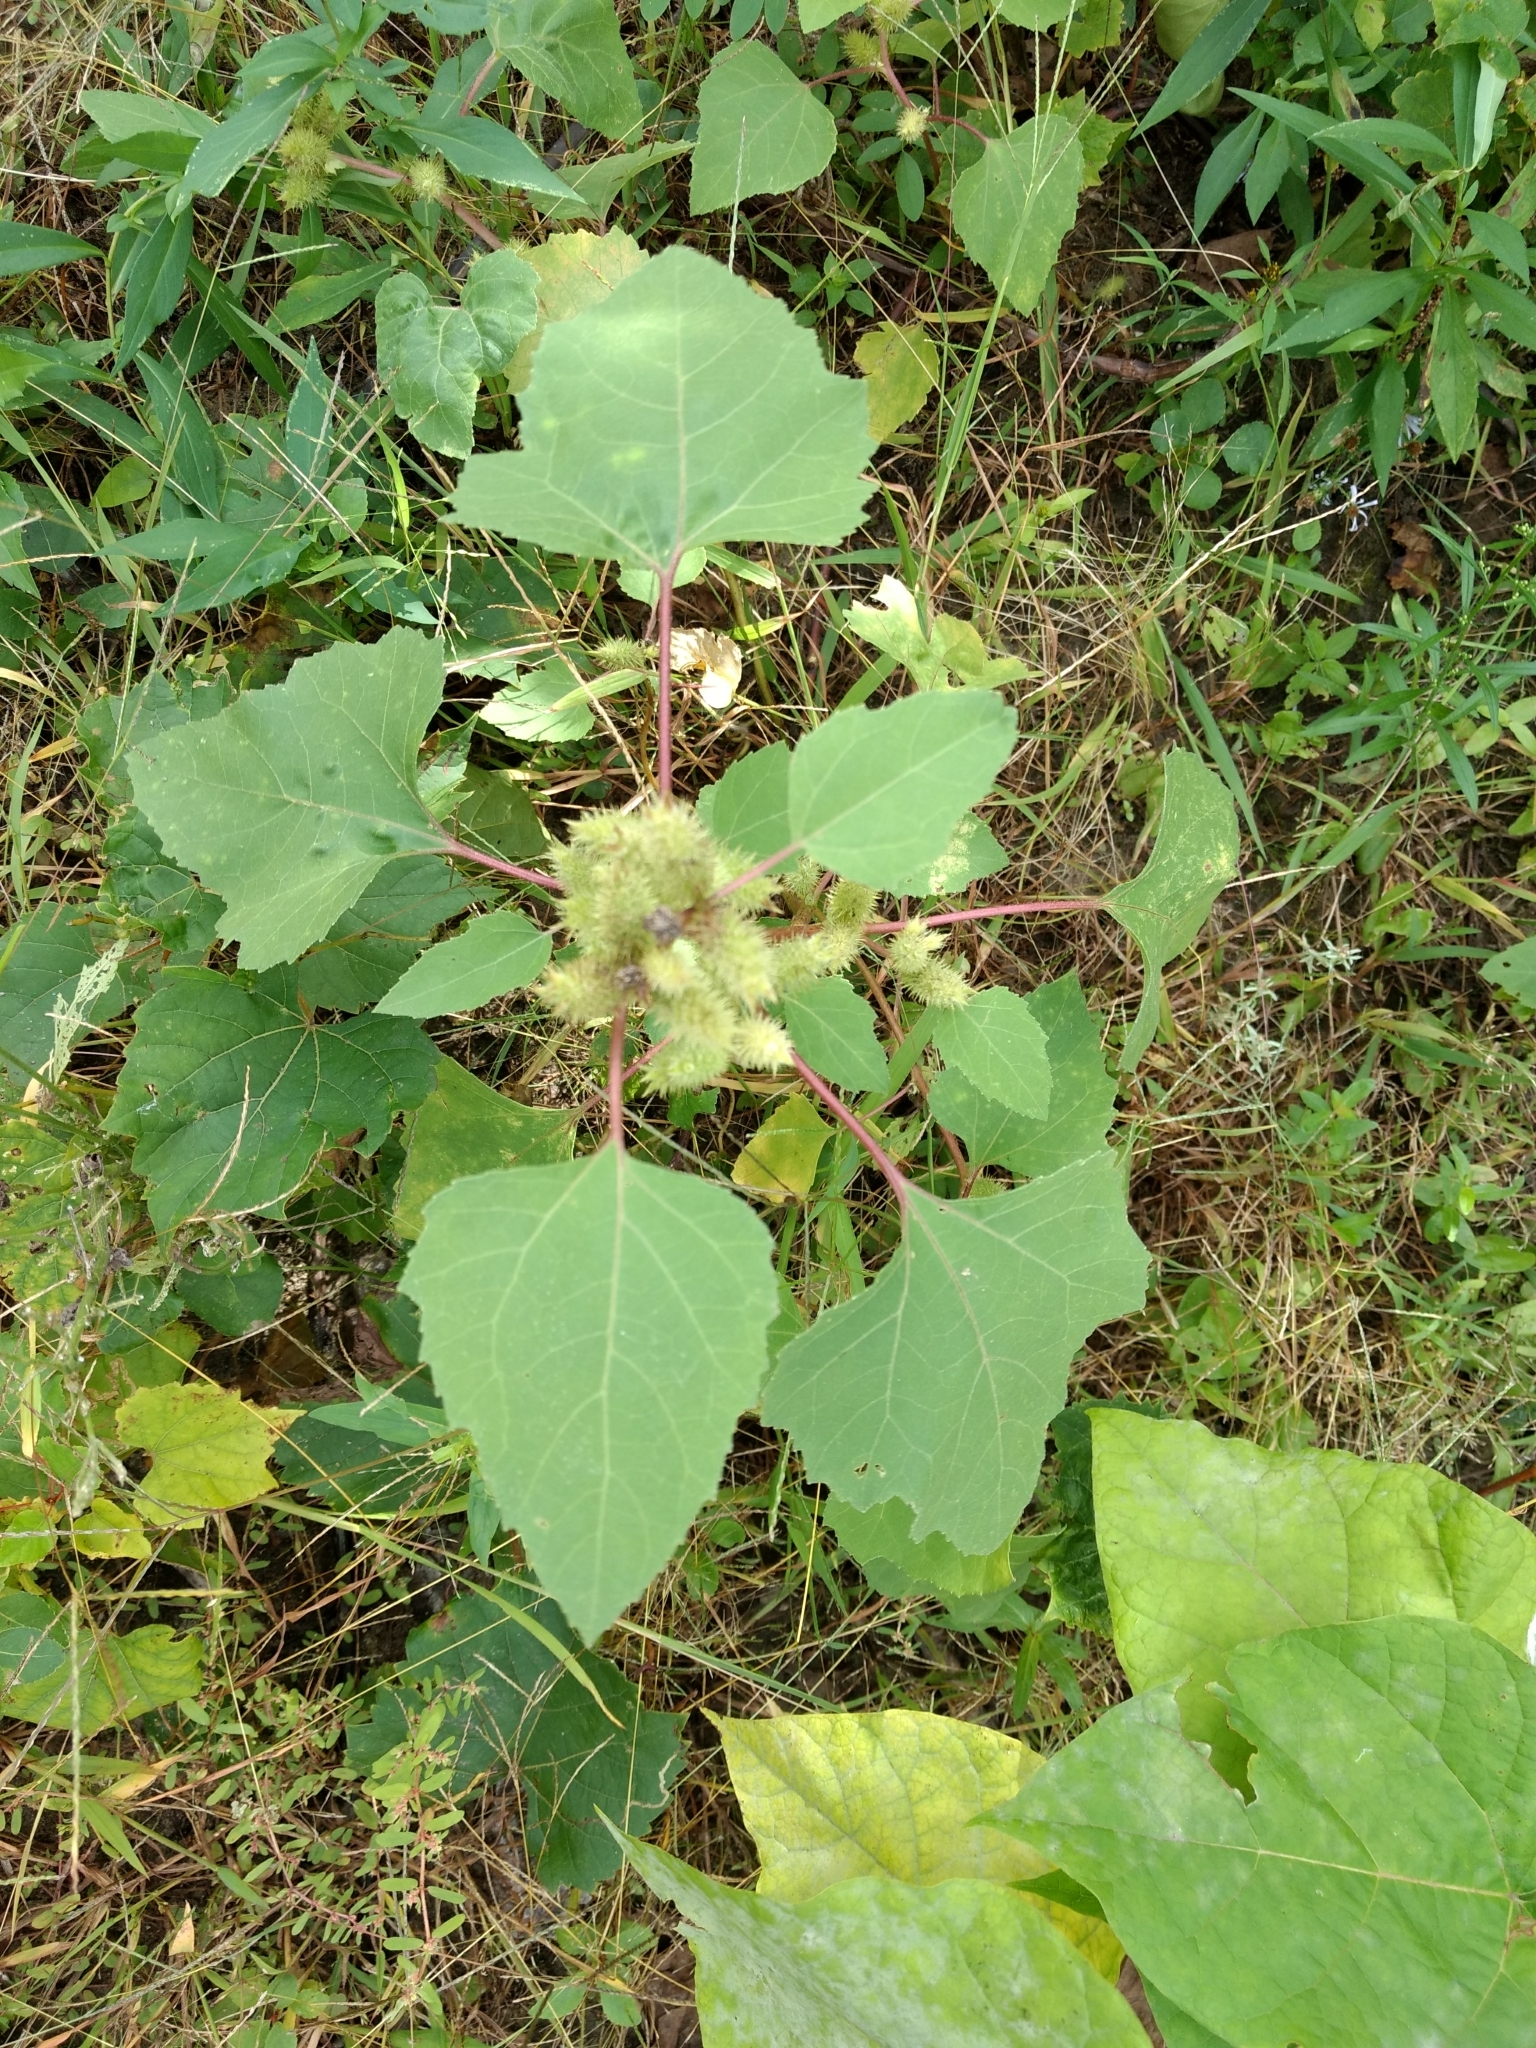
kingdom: Plantae
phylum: Tracheophyta
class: Magnoliopsida
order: Asterales
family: Asteraceae
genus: Xanthium
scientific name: Xanthium strumarium
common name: Rough cocklebur
